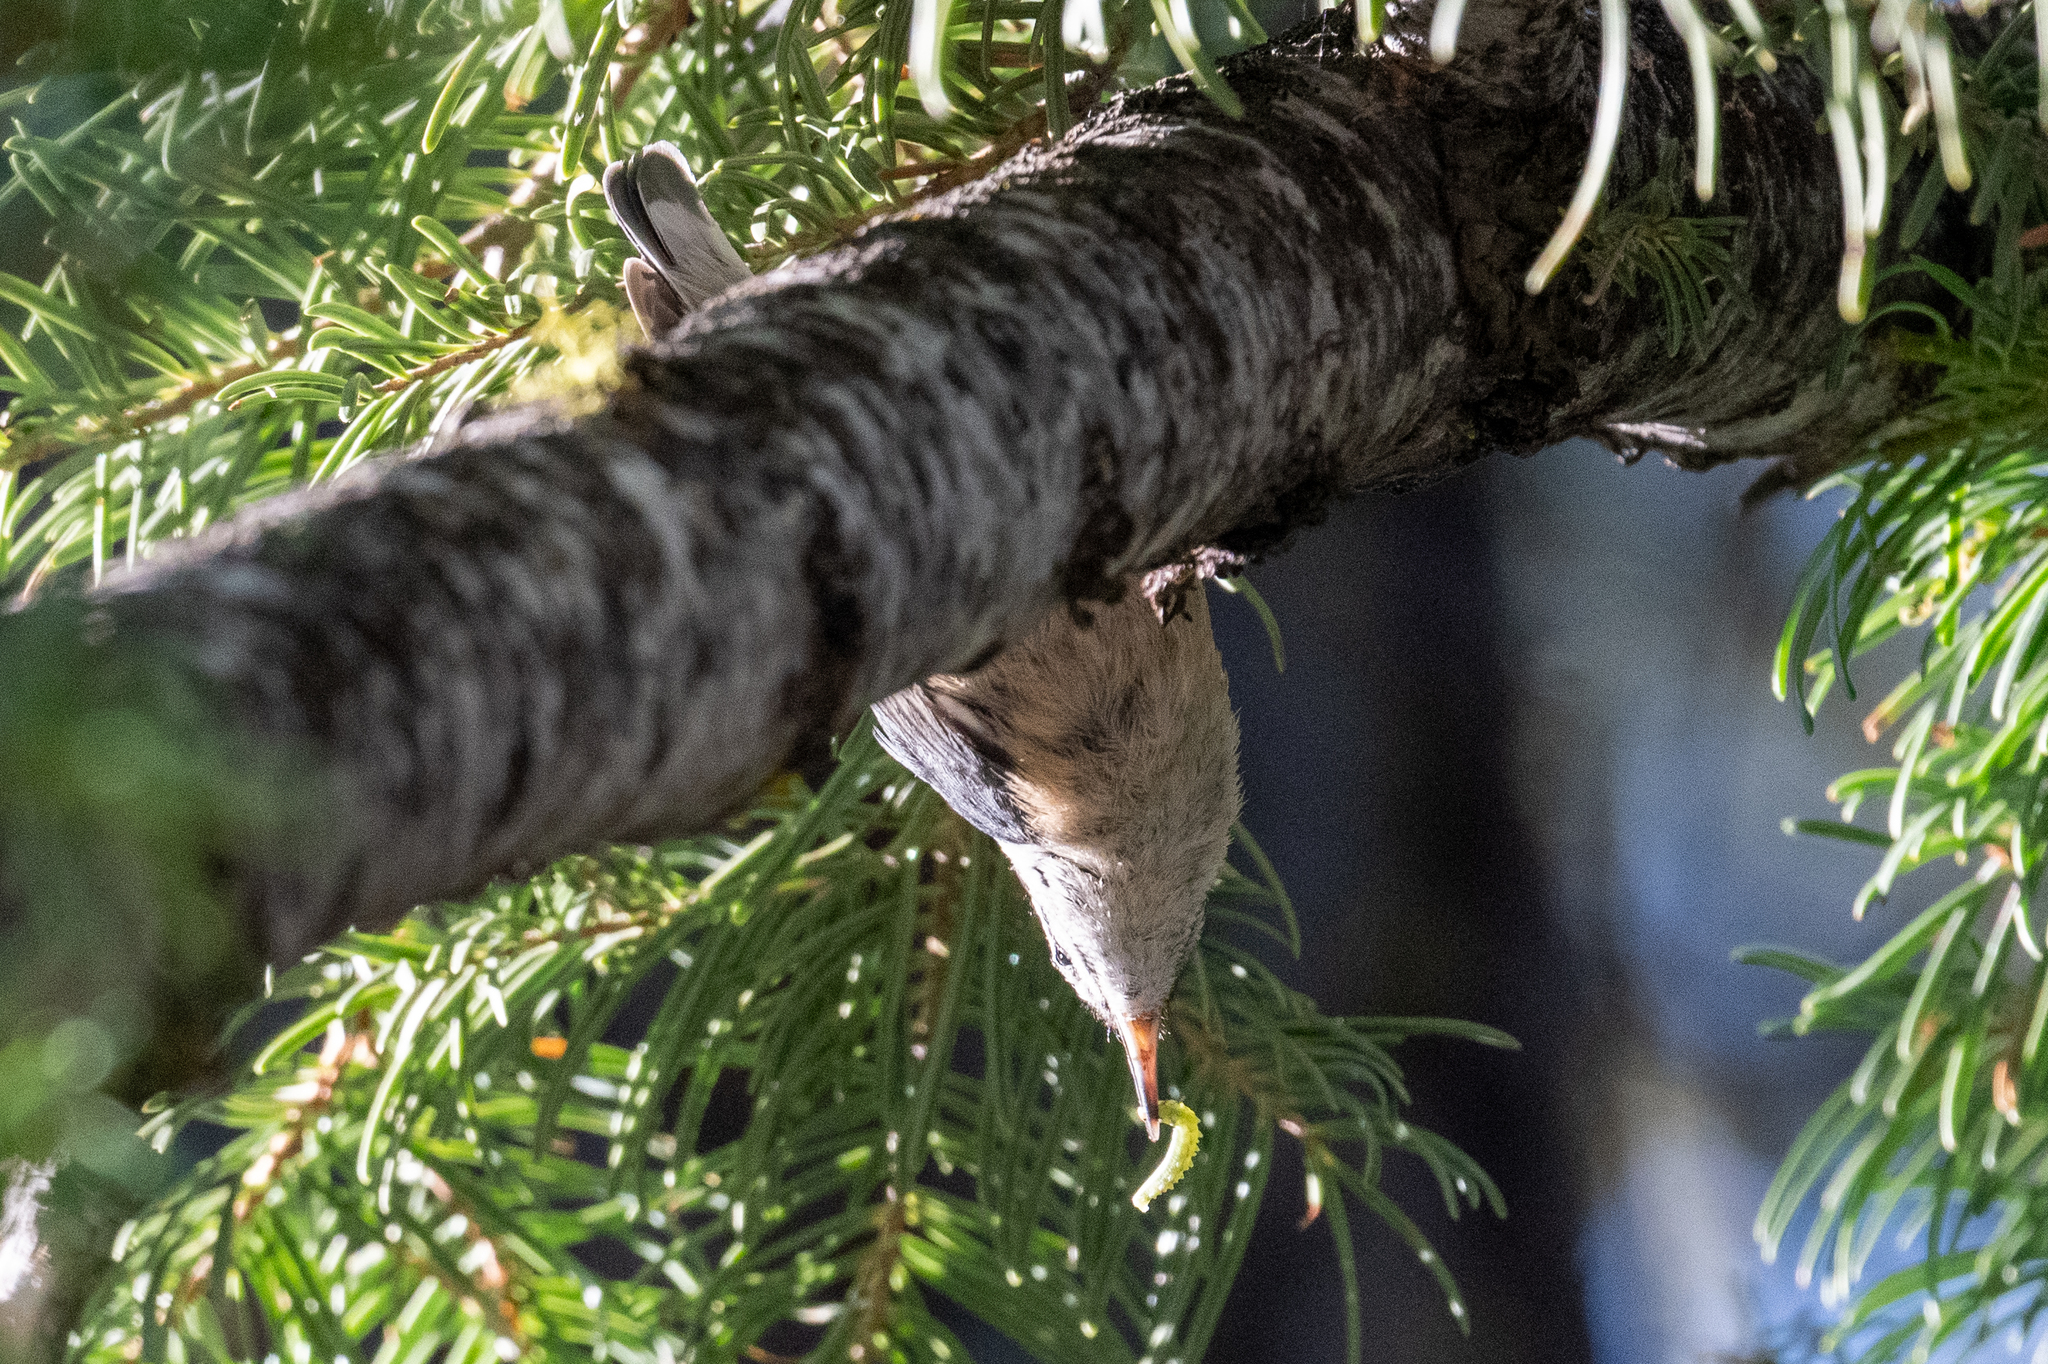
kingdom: Animalia
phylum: Chordata
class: Aves
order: Passeriformes
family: Sittidae
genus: Sitta
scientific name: Sitta canadensis
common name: Red-breasted nuthatch
